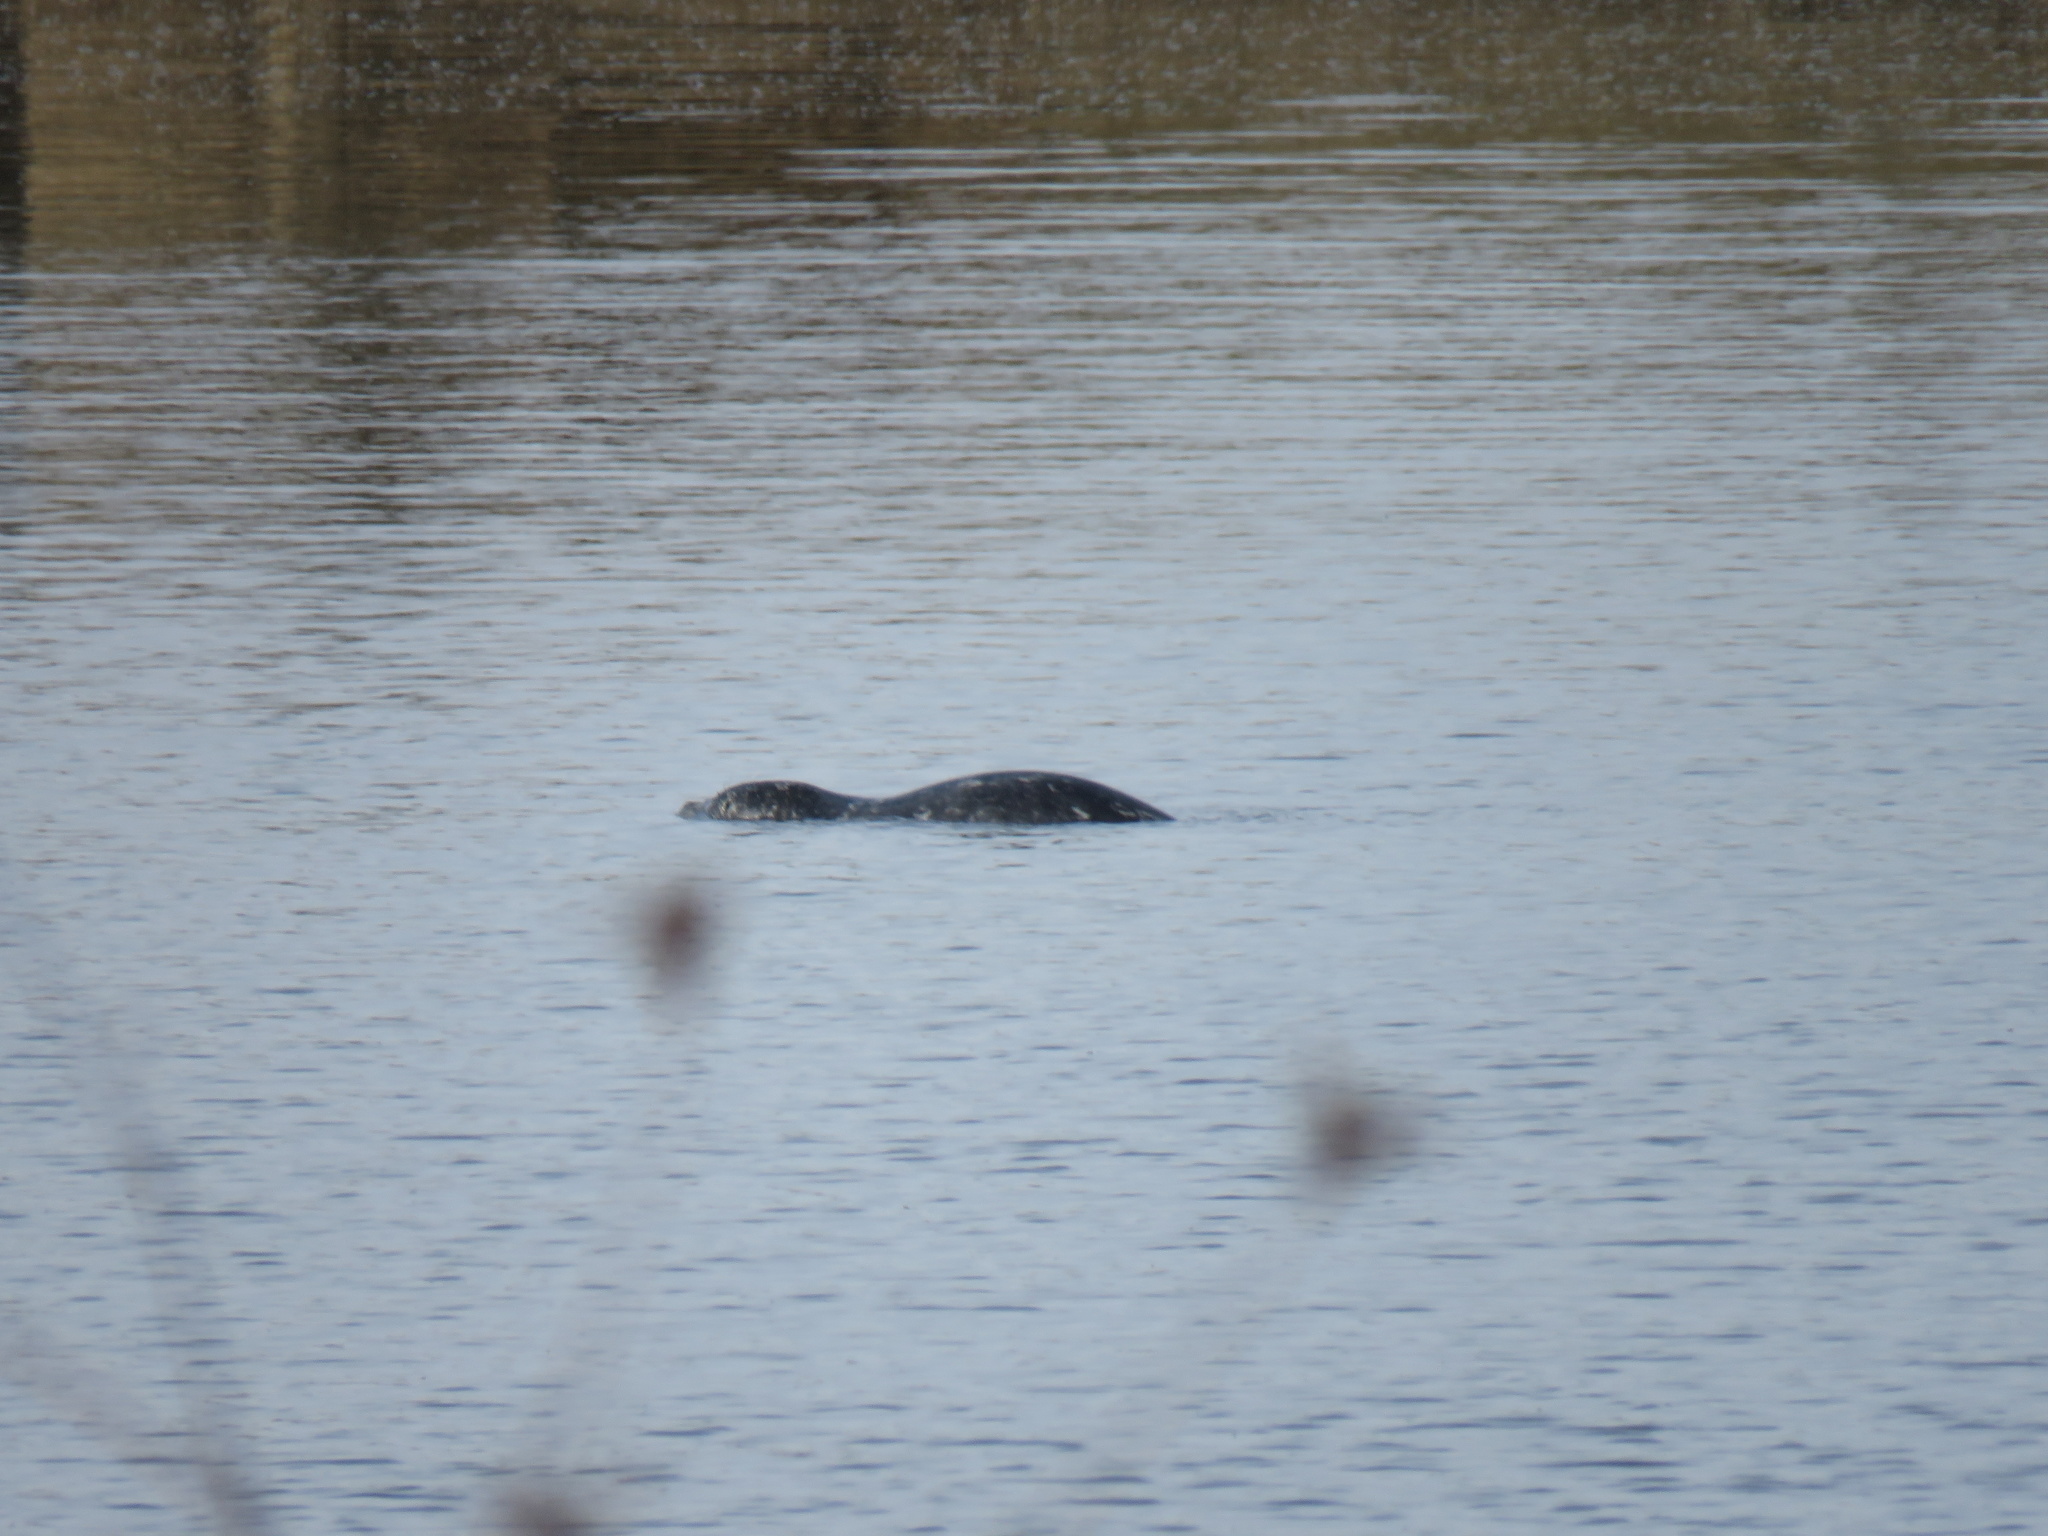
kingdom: Animalia
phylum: Chordata
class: Mammalia
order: Carnivora
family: Phocidae
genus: Phoca
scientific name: Phoca vitulina
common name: Harbor seal
